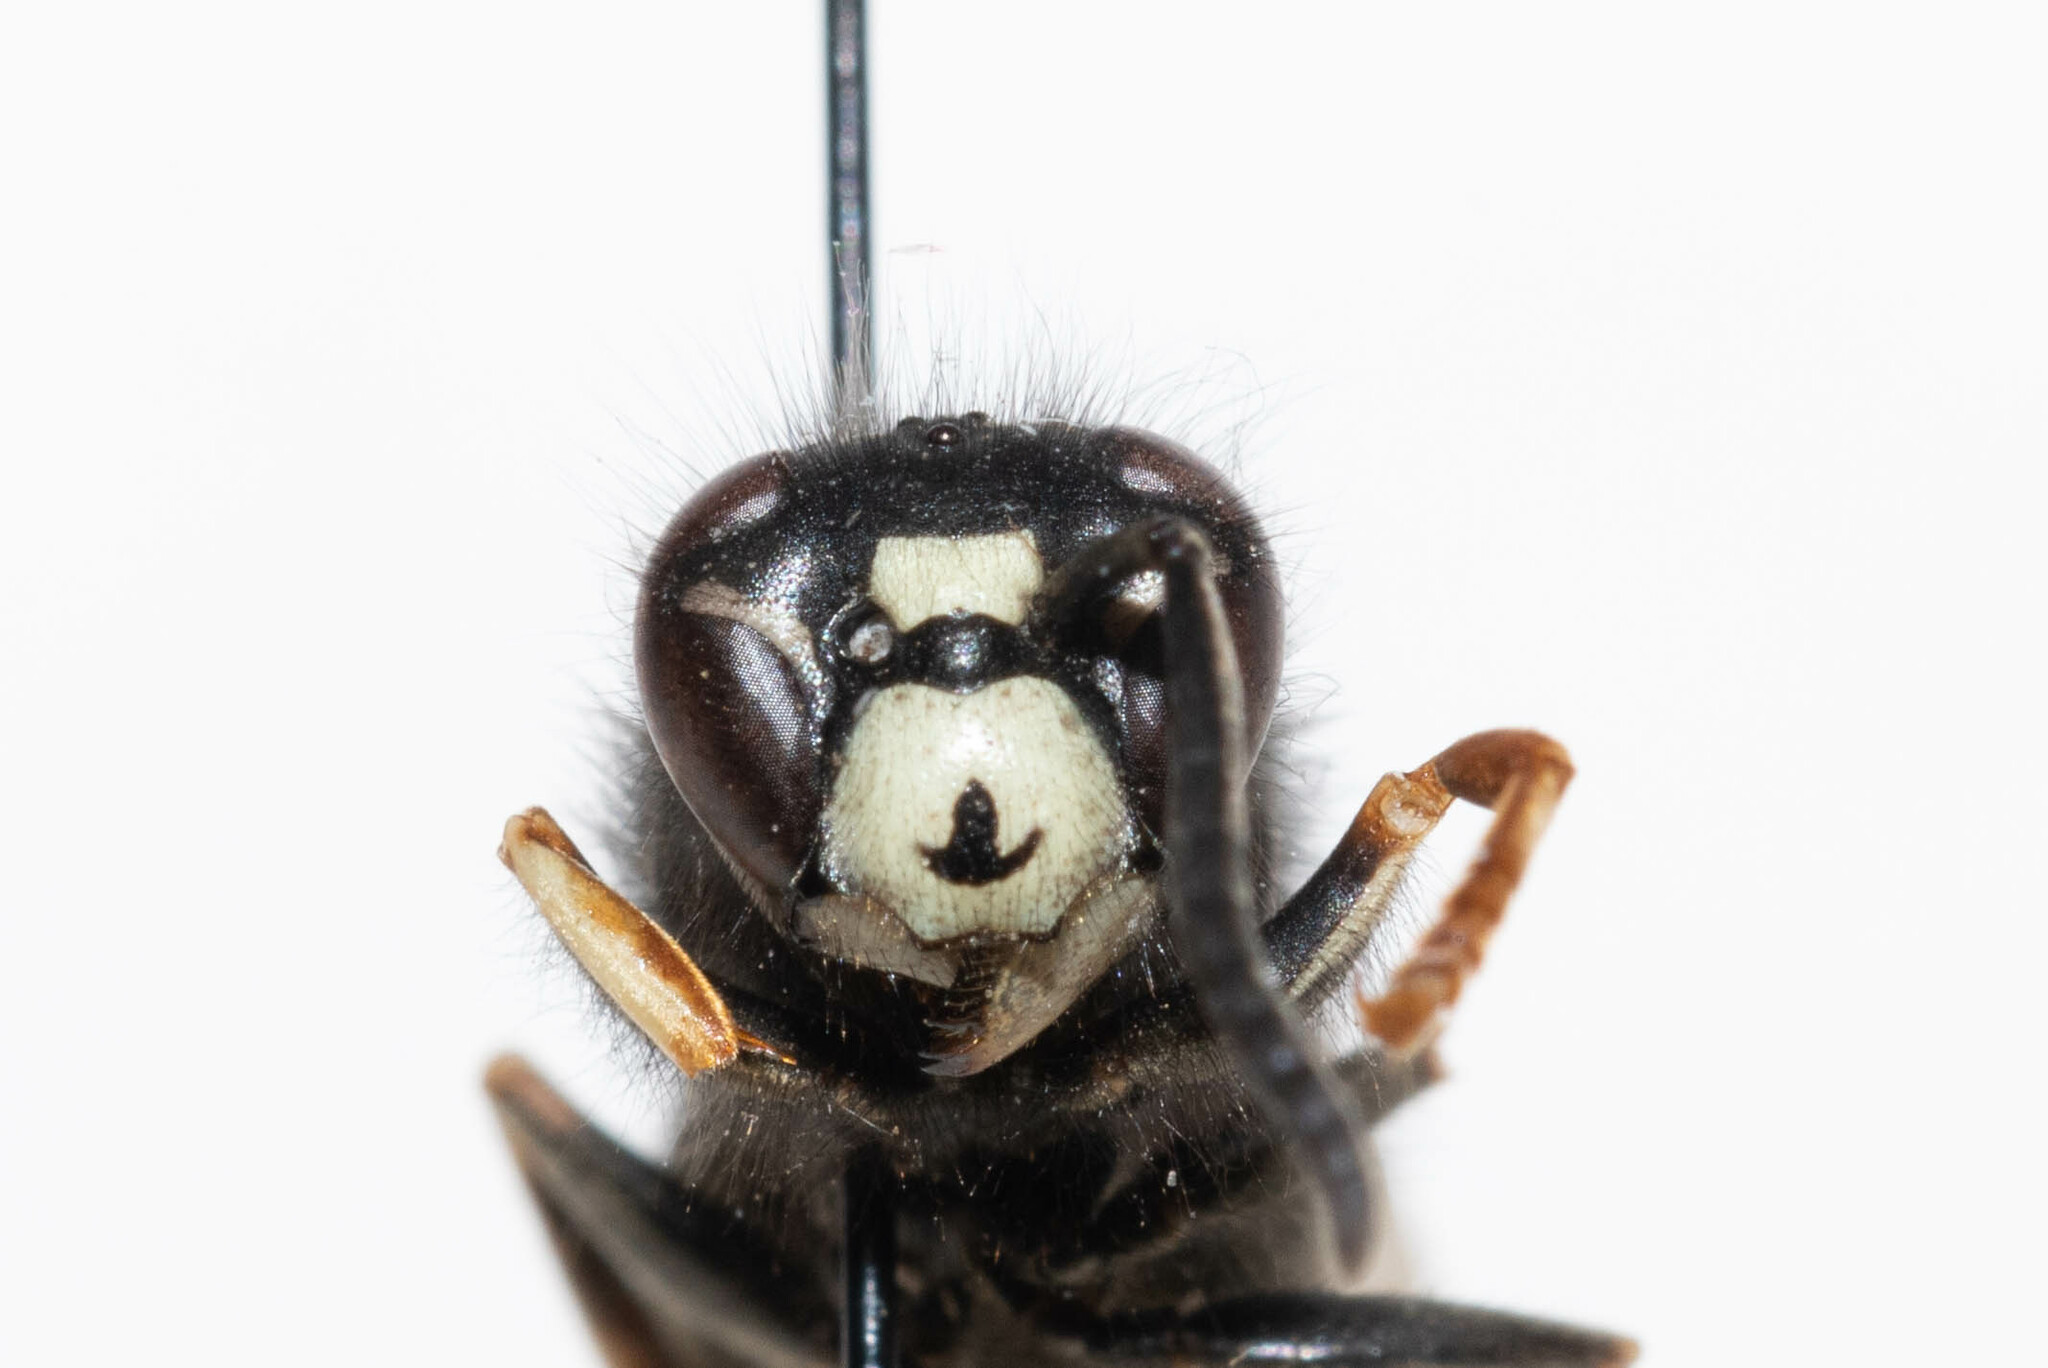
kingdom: Animalia
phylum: Arthropoda
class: Insecta
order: Hymenoptera
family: Vespidae
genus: Vespula
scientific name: Vespula consobrina
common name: Blackjacket
